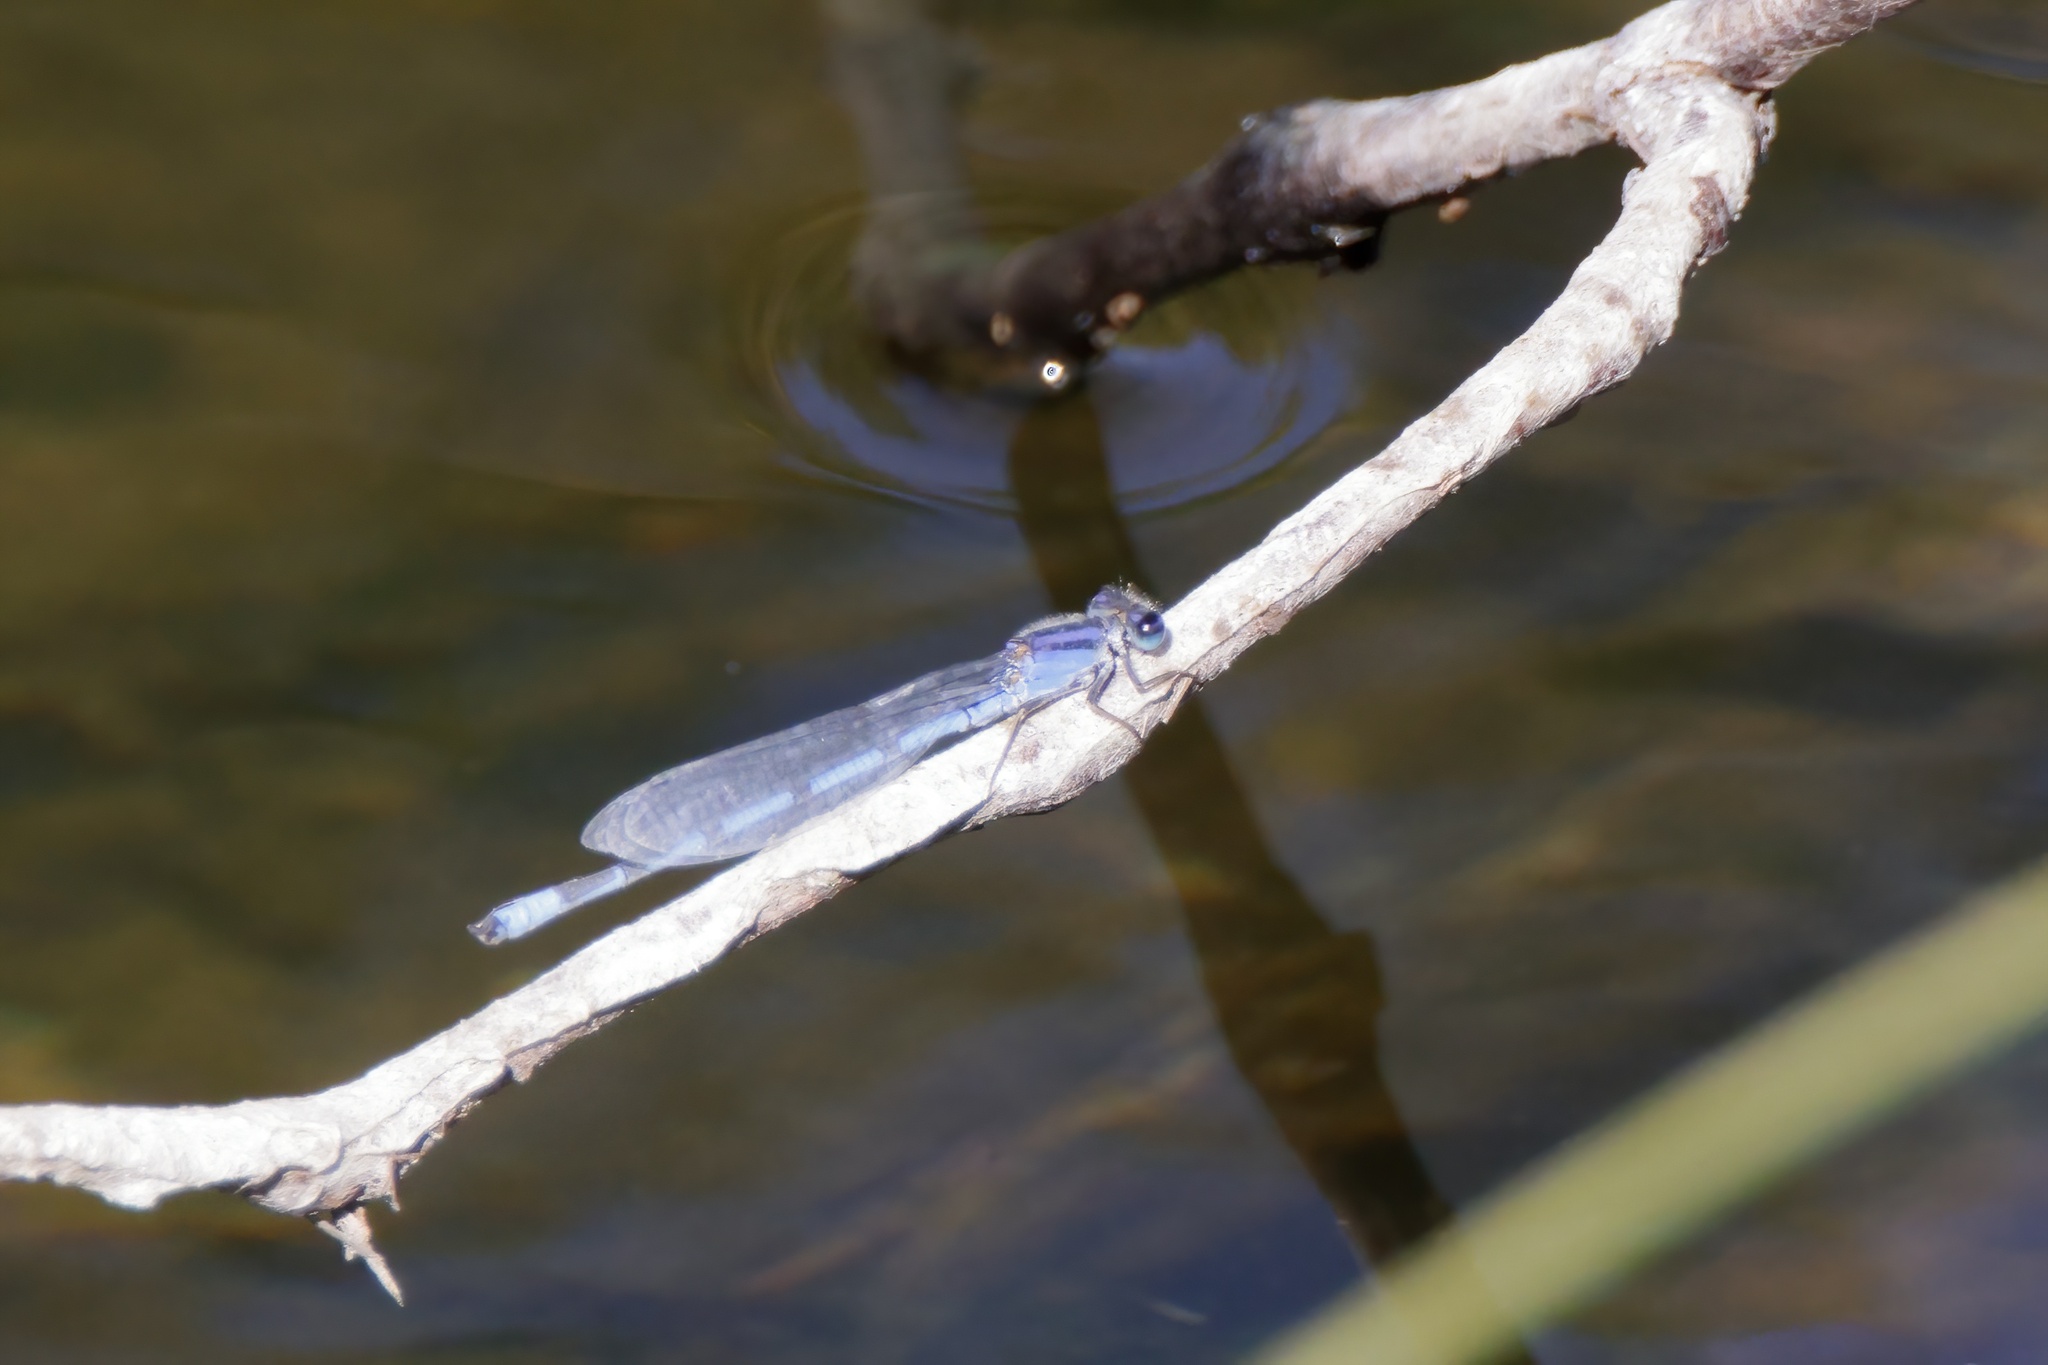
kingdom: Animalia
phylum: Arthropoda
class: Insecta
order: Odonata
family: Coenagrionidae
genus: Enallagma
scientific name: Enallagma civile
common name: Damselfly
